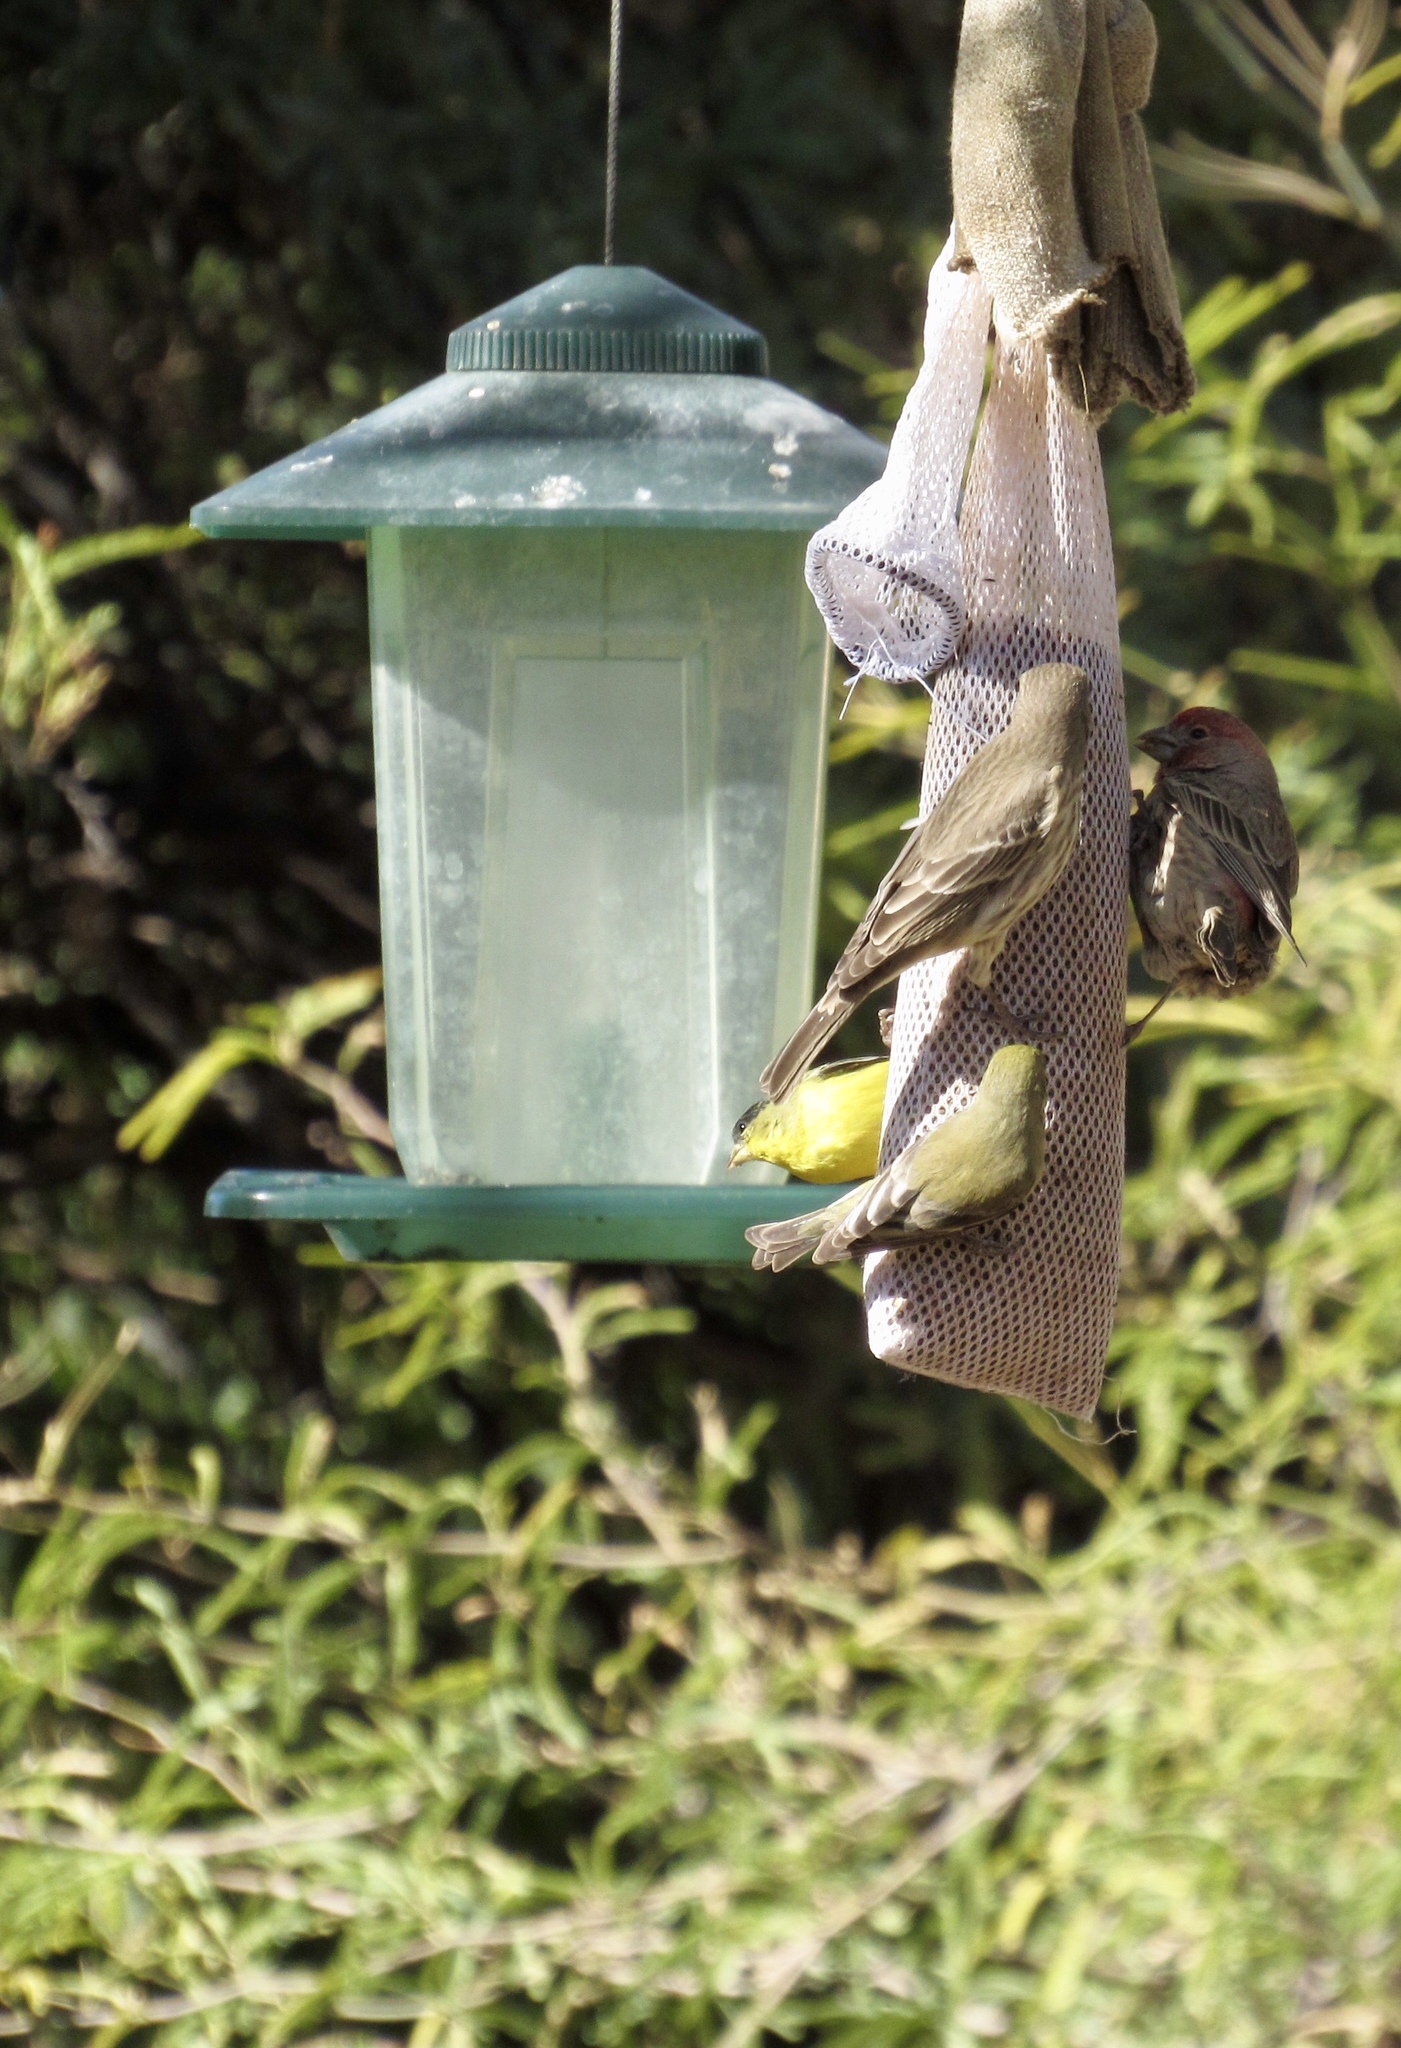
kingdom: Animalia
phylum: Chordata
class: Aves
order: Passeriformes
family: Fringillidae
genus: Spinus
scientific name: Spinus psaltria
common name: Lesser goldfinch
